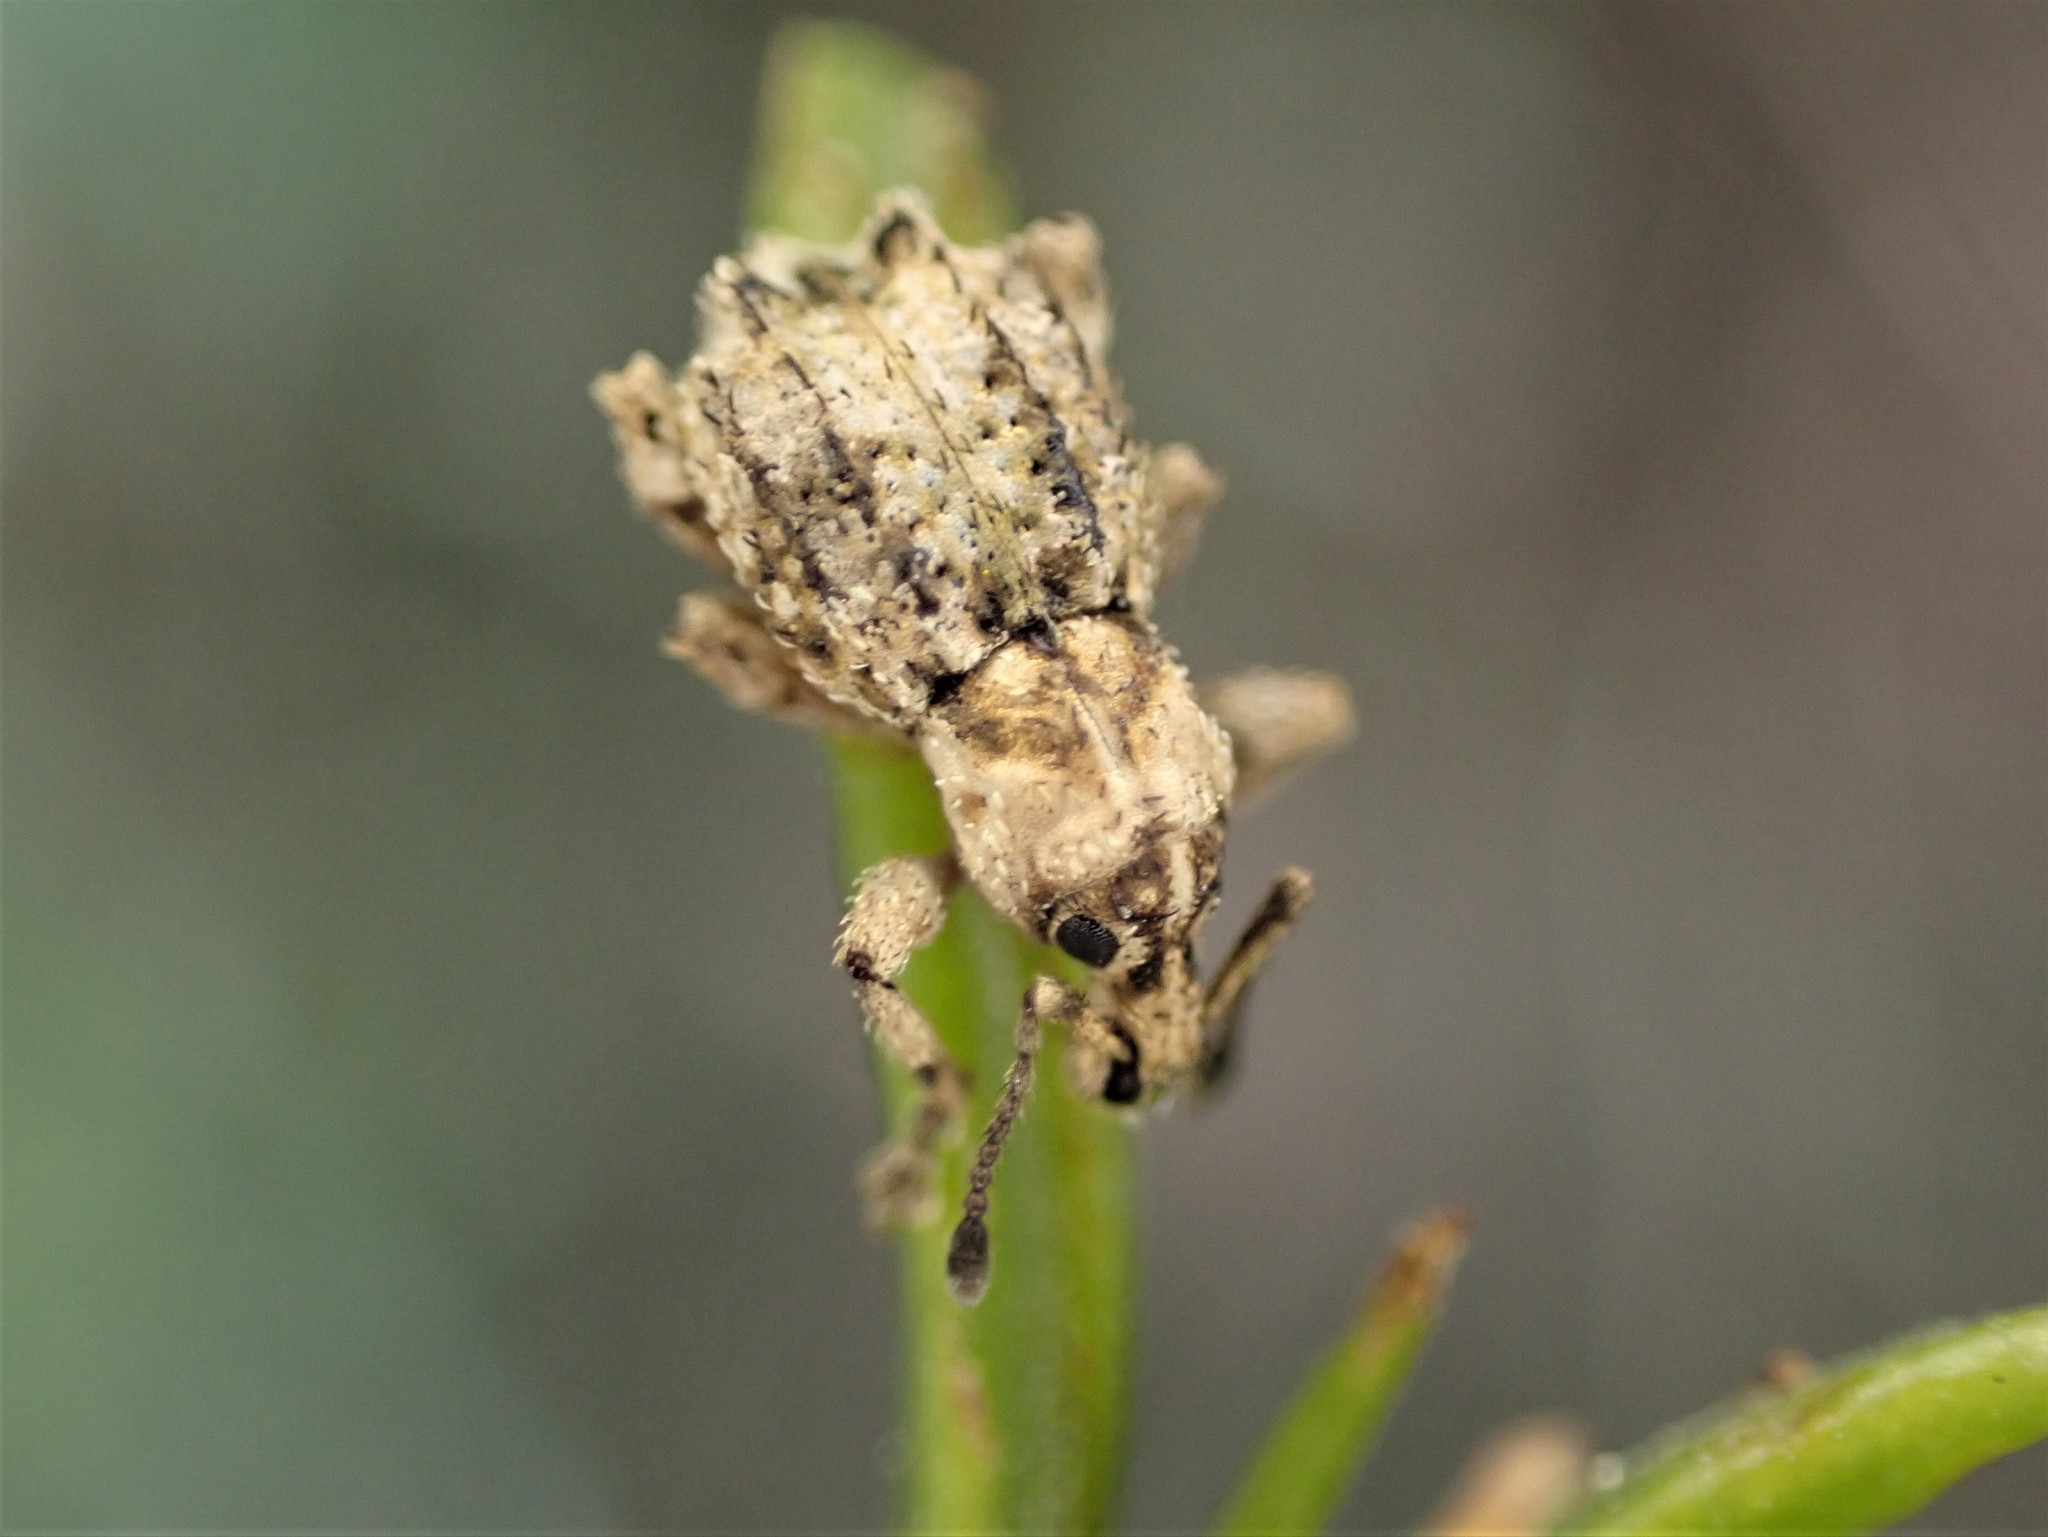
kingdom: Animalia
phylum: Arthropoda
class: Insecta
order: Coleoptera
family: Curculionidae
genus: Brachyolus
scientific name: Brachyolus punctatus
